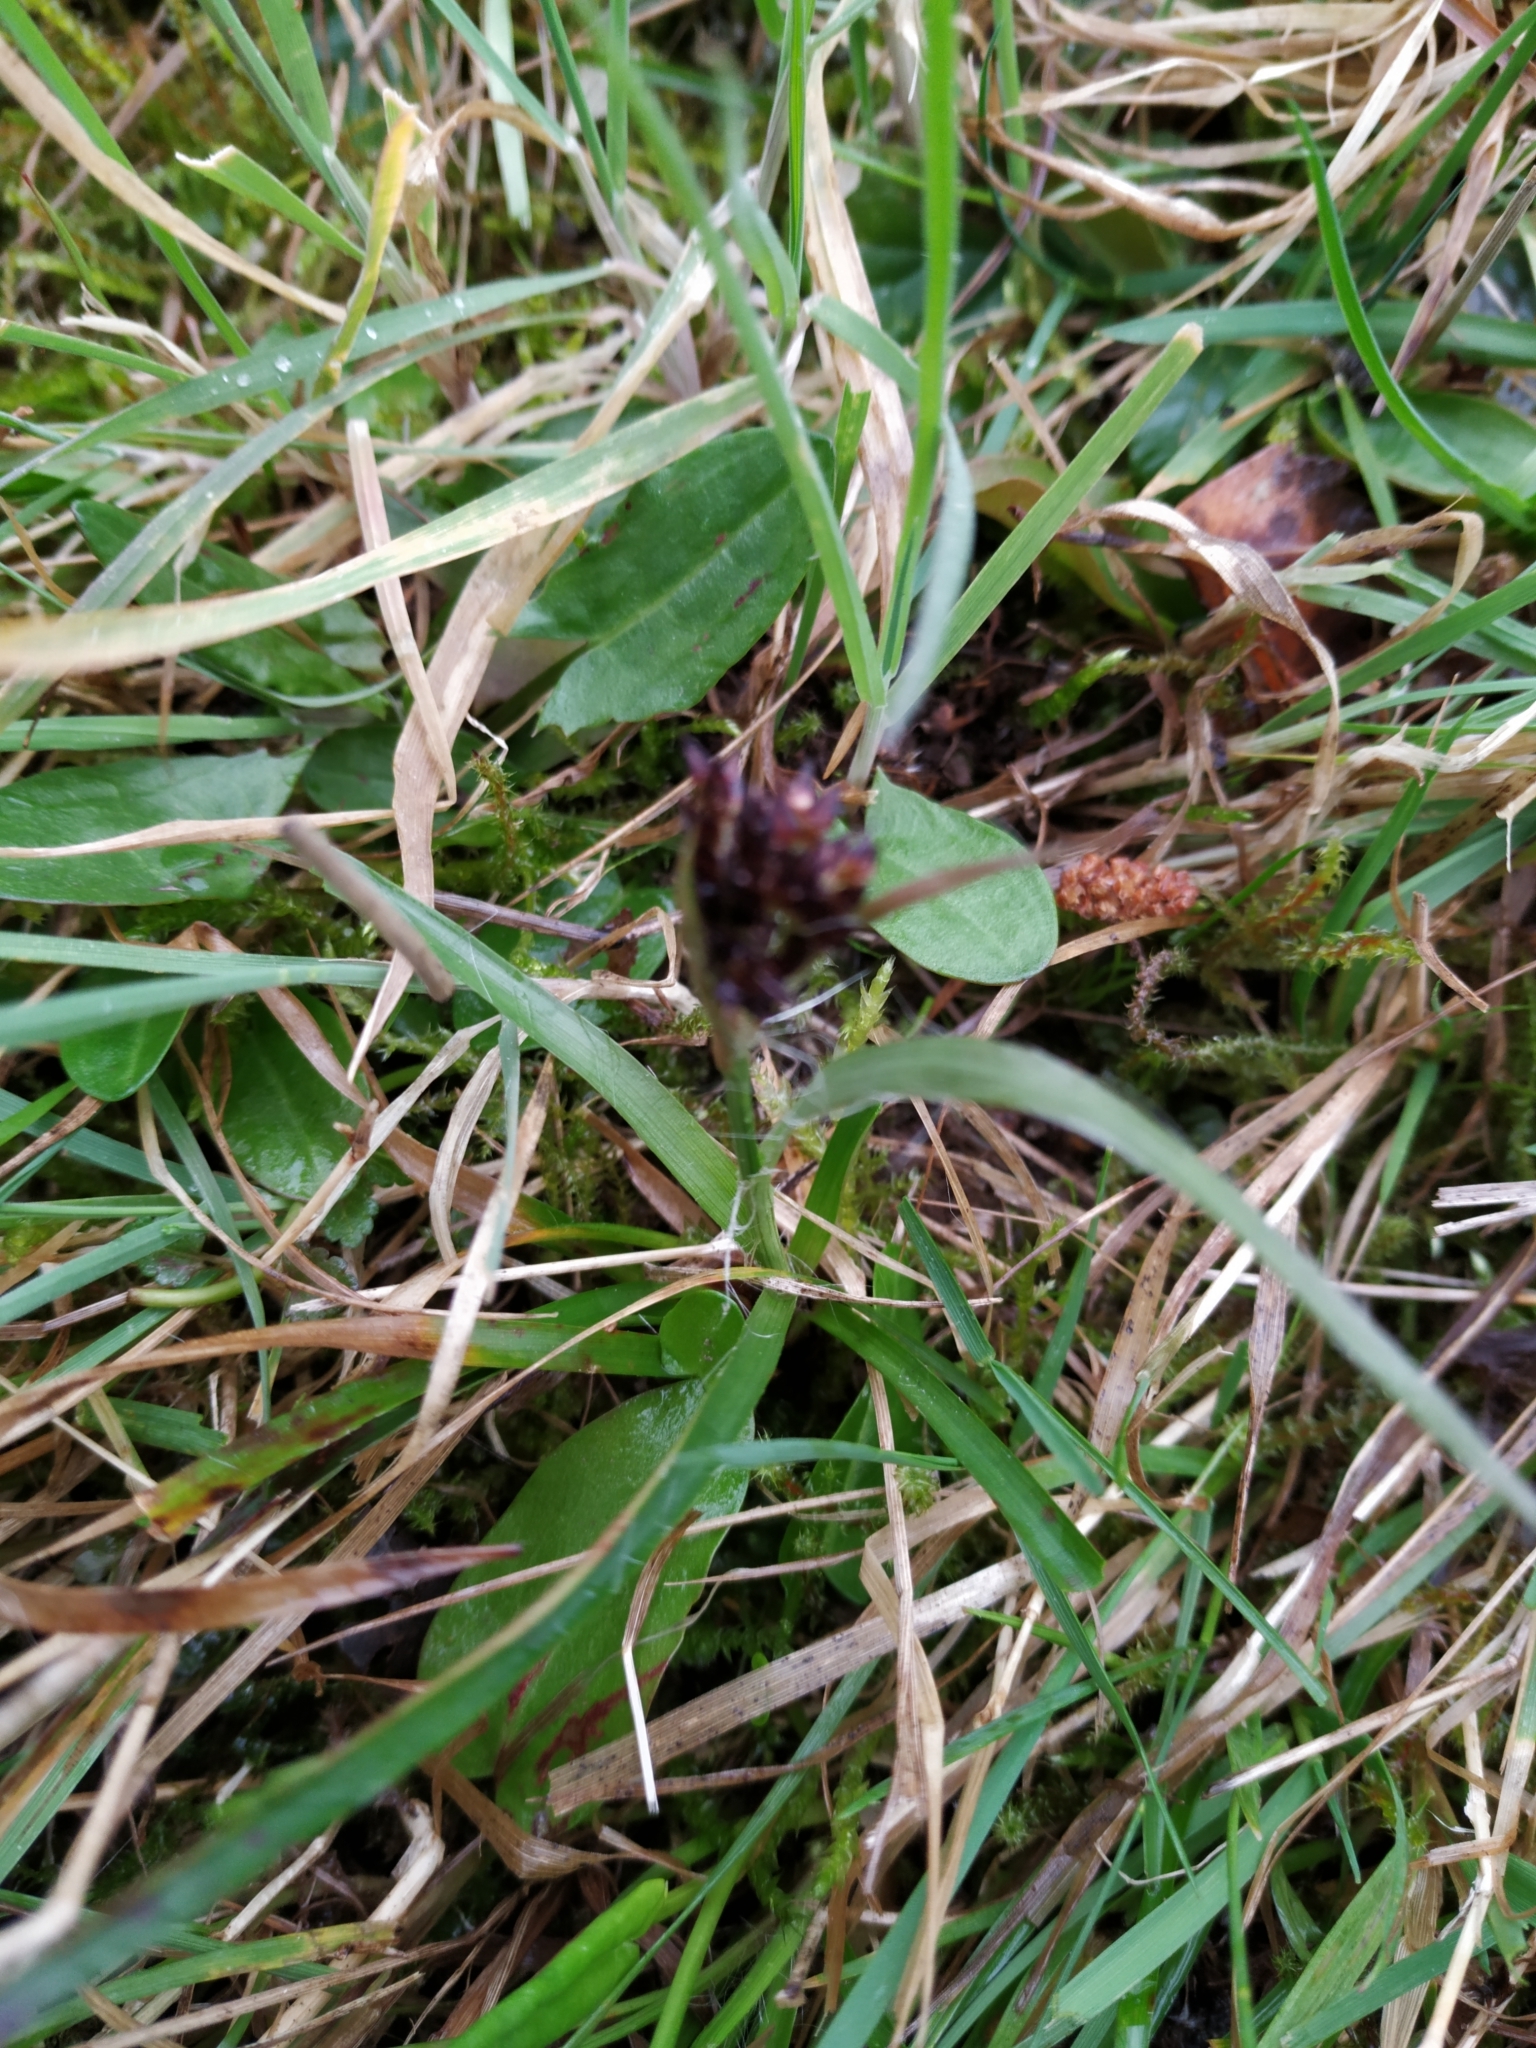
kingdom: Plantae
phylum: Tracheophyta
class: Liliopsida
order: Poales
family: Juncaceae
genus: Luzula
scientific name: Luzula campestris
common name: Field wood-rush
